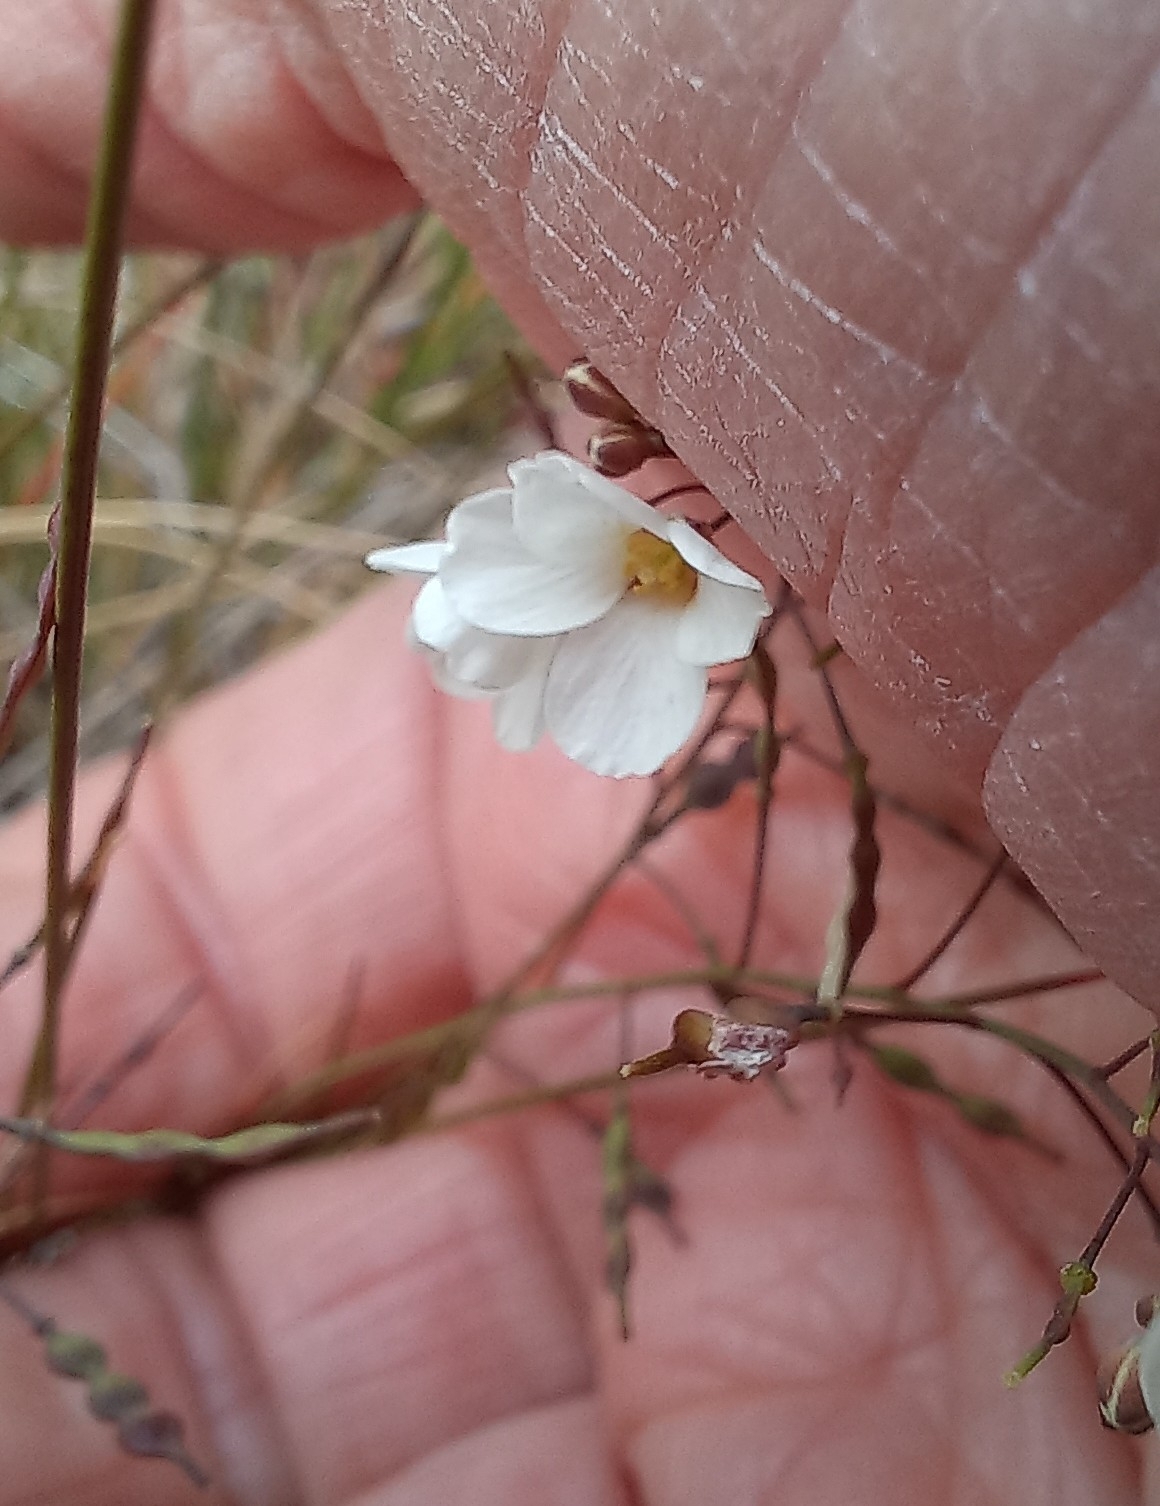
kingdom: Plantae
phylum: Tracheophyta
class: Magnoliopsida
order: Brassicales
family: Brassicaceae
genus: Heliophila
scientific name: Heliophila pusilla
